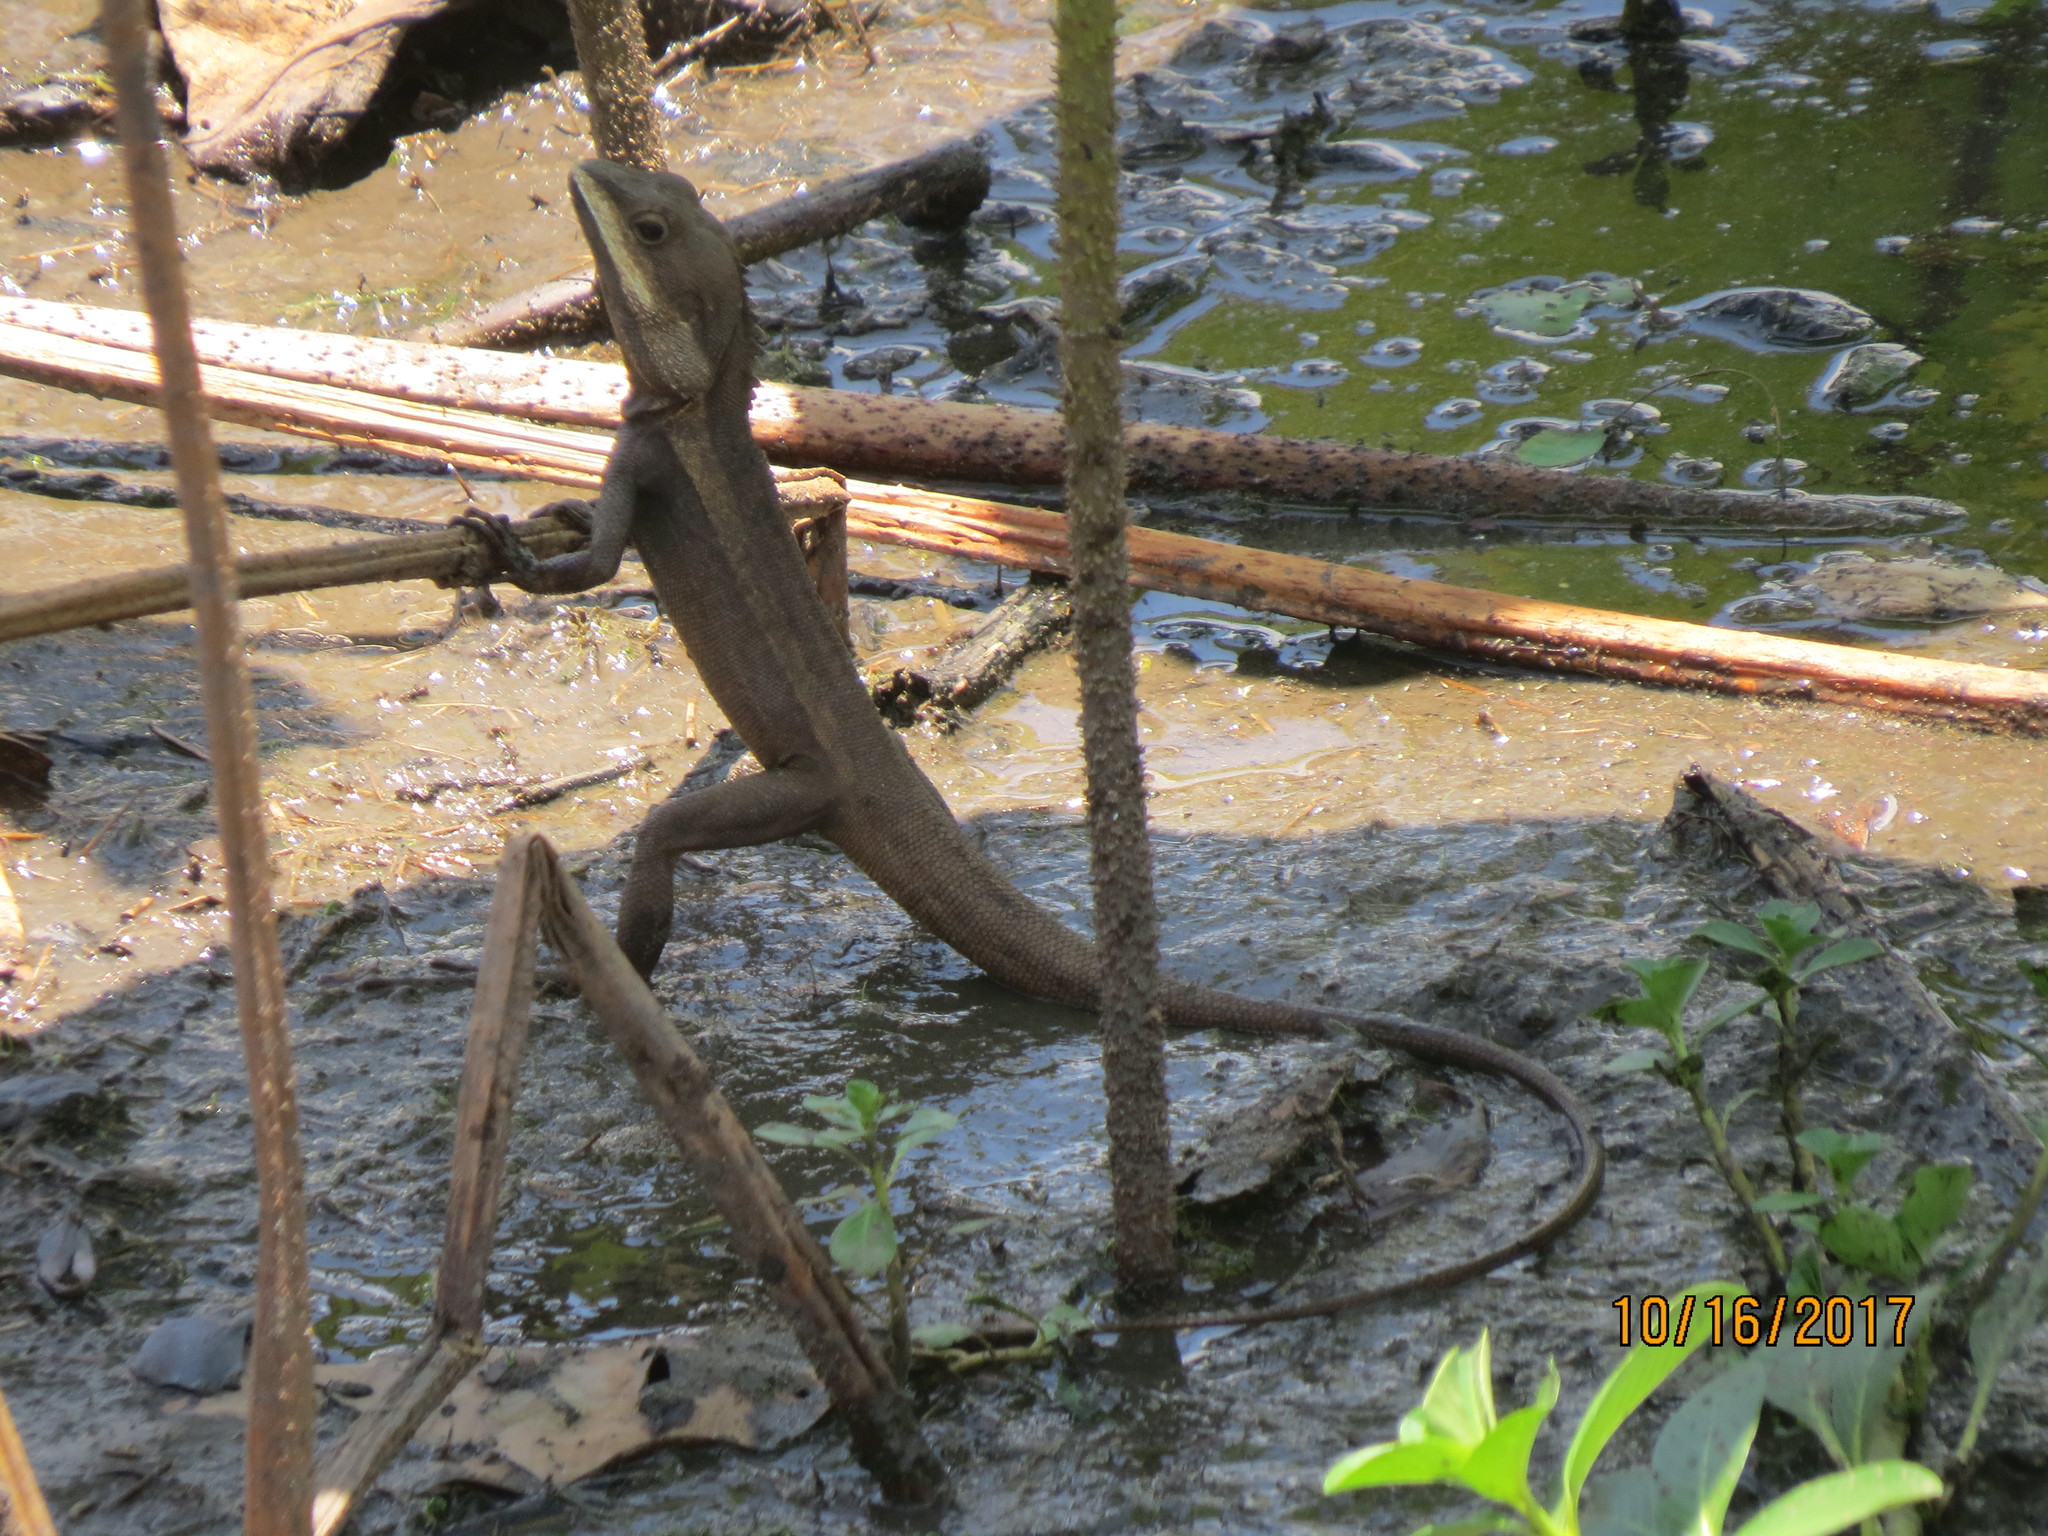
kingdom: Animalia
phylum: Chordata
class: Squamata
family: Agamidae
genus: Tropicagama
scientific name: Tropicagama temporalis
